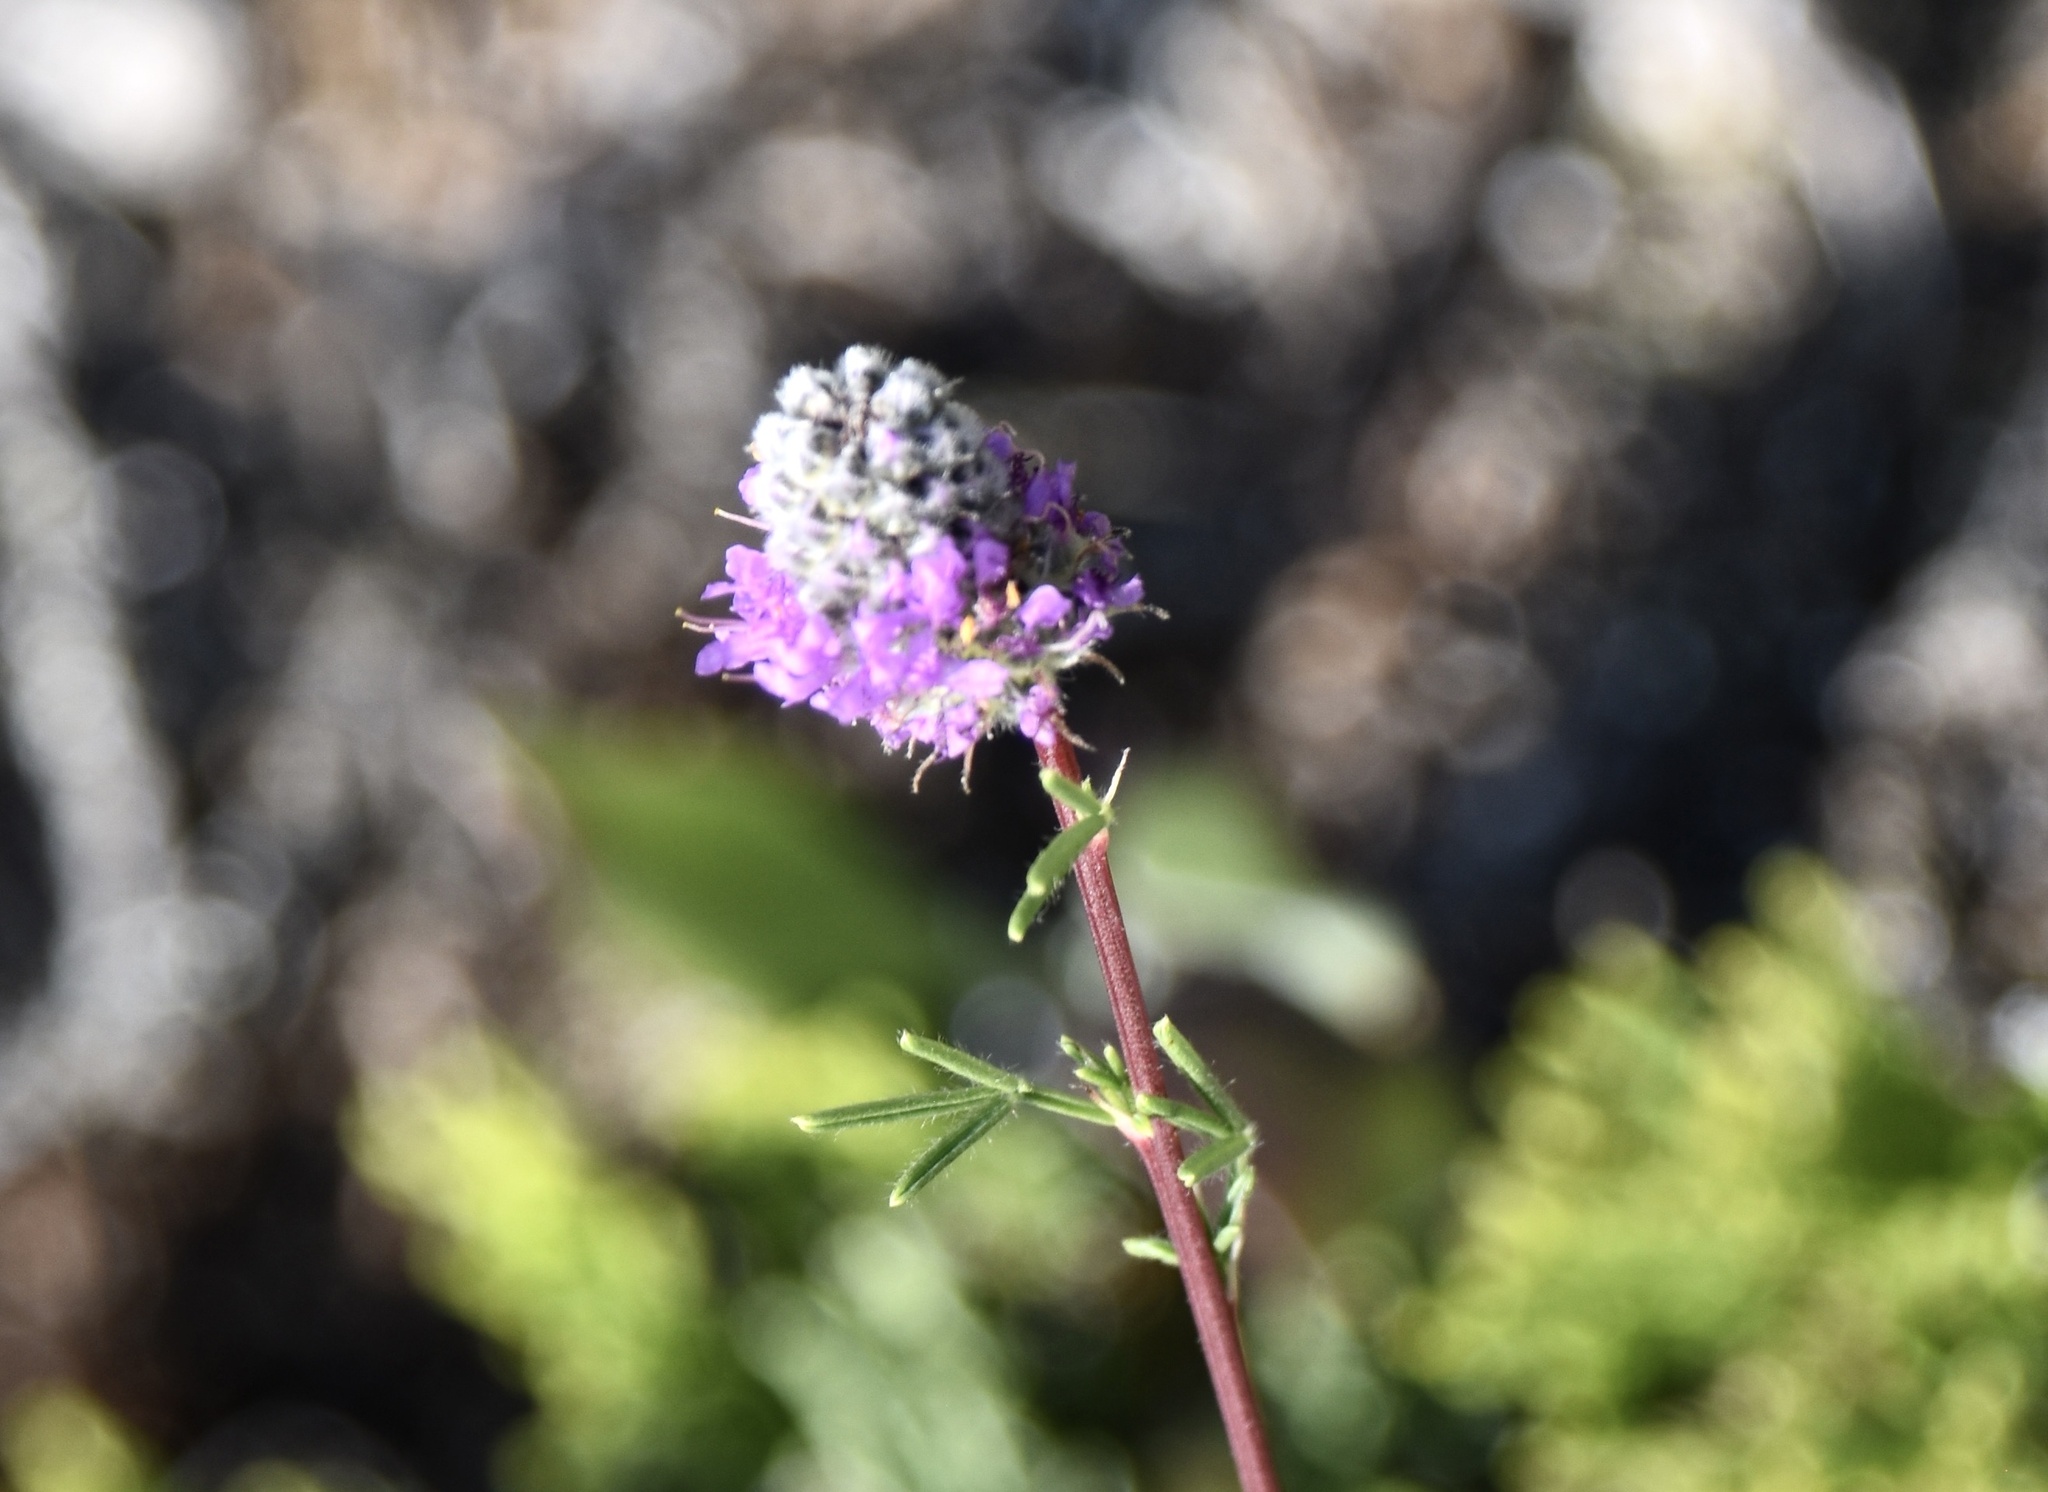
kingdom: Plantae
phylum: Tracheophyta
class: Magnoliopsida
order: Fabales
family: Fabaceae
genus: Dalea
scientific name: Dalea purpurea
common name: Purple prairie-clover
